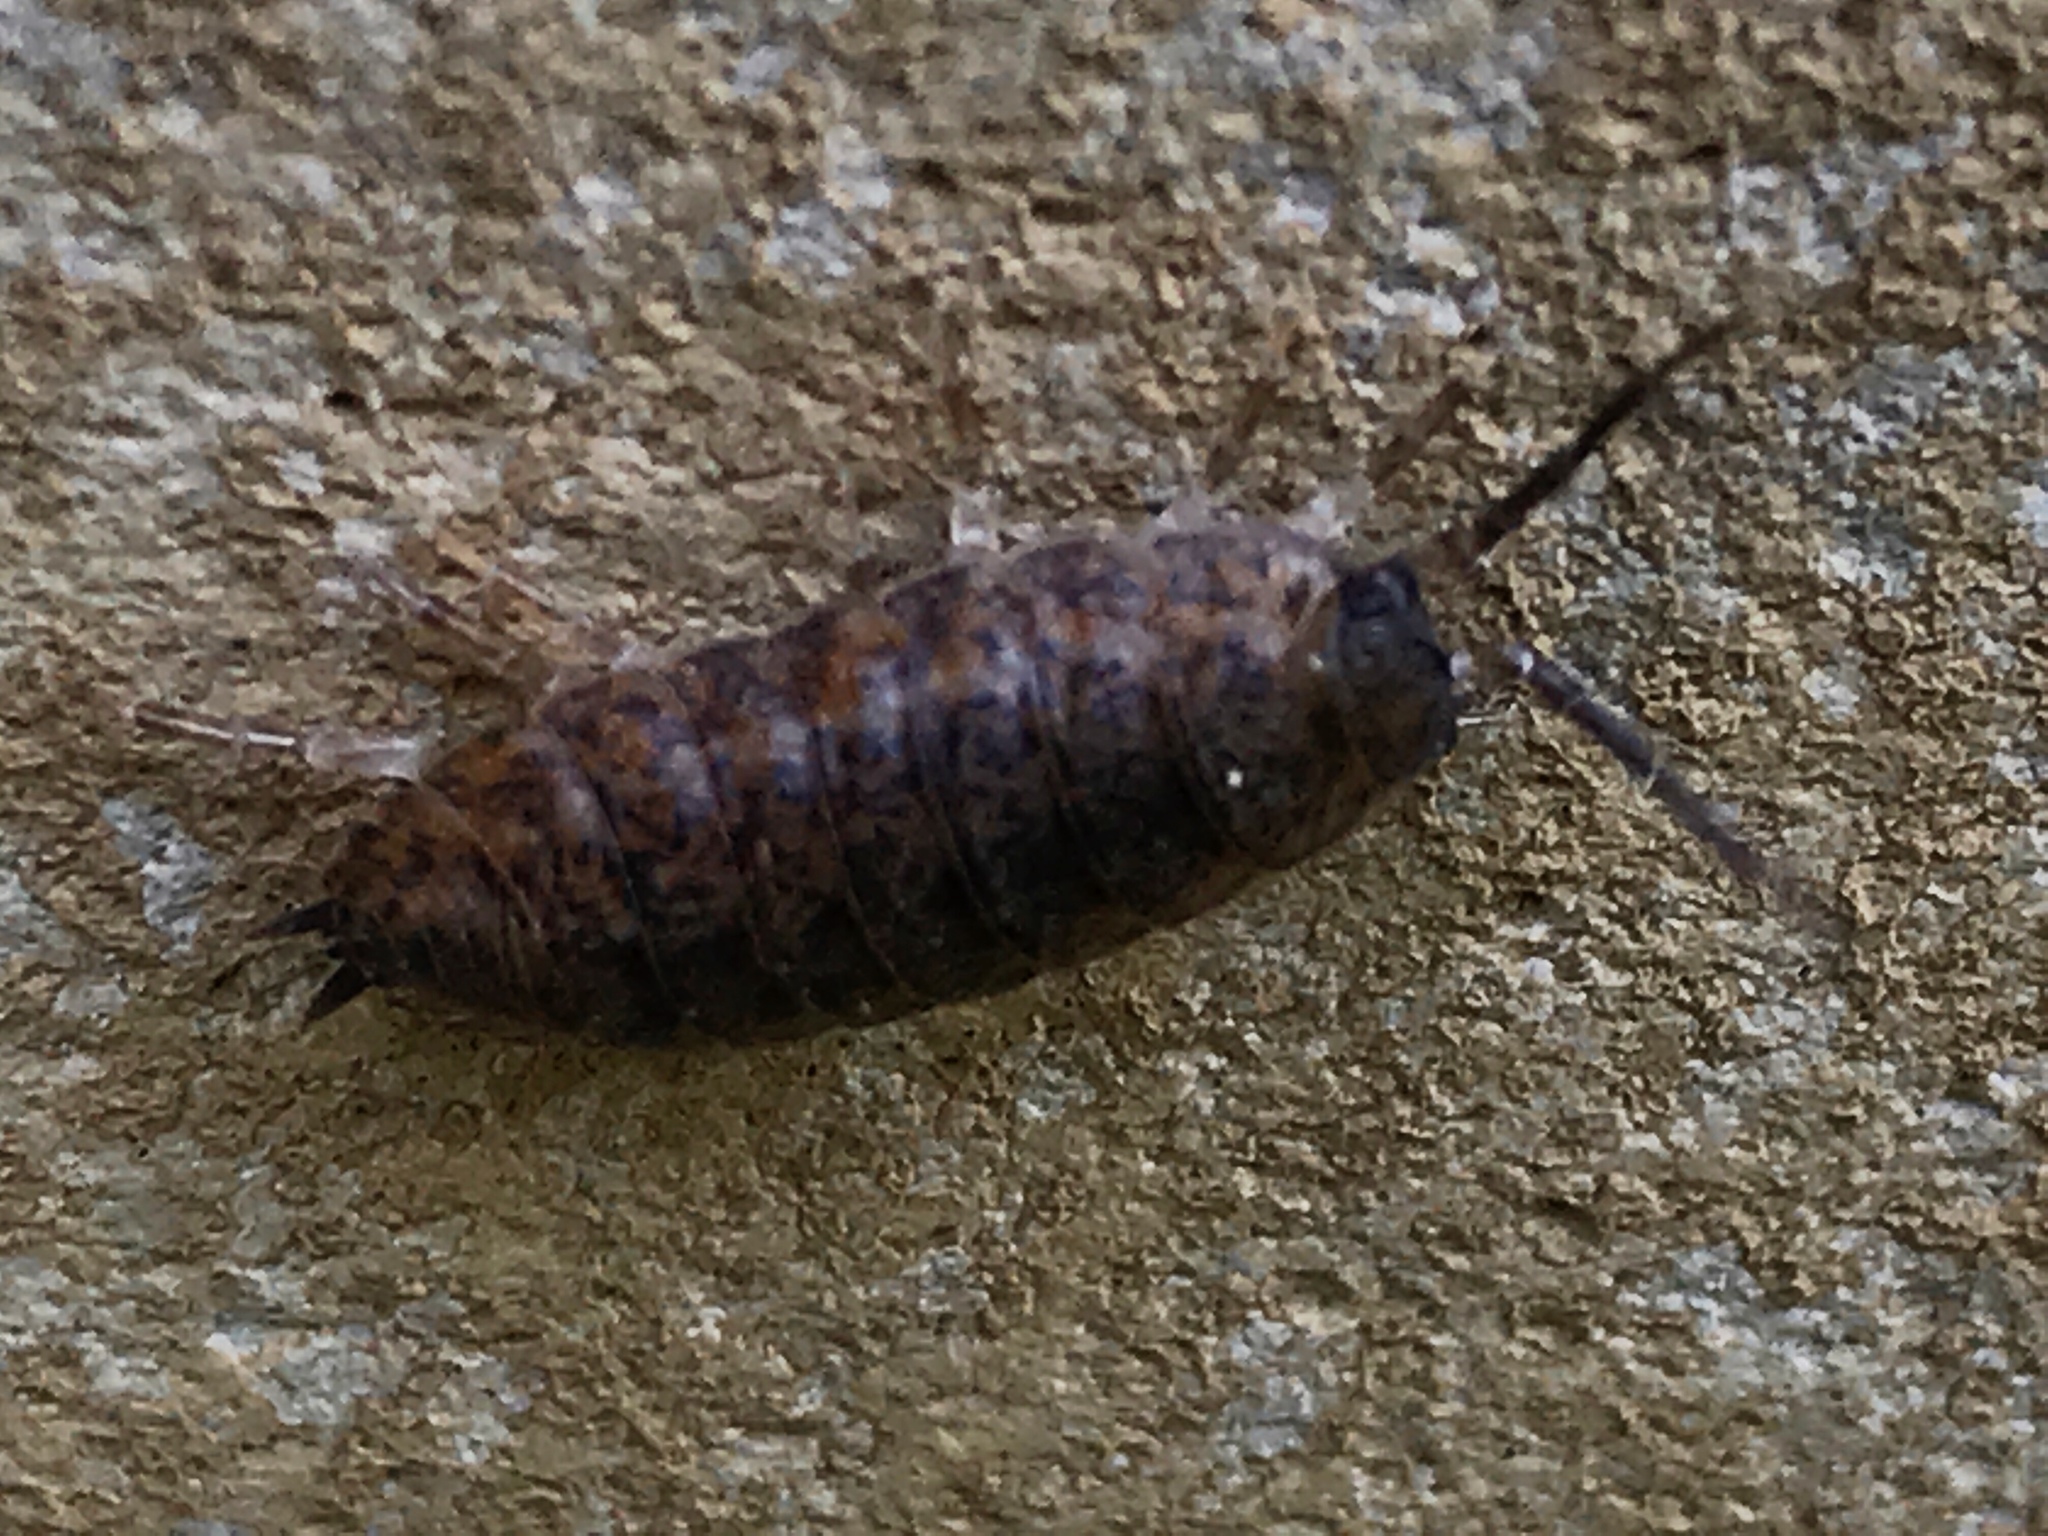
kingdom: Animalia
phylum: Arthropoda
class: Malacostraca
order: Isopoda
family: Trachelipodidae
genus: Trachelipus
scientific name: Trachelipus rathkii
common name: Isopod
